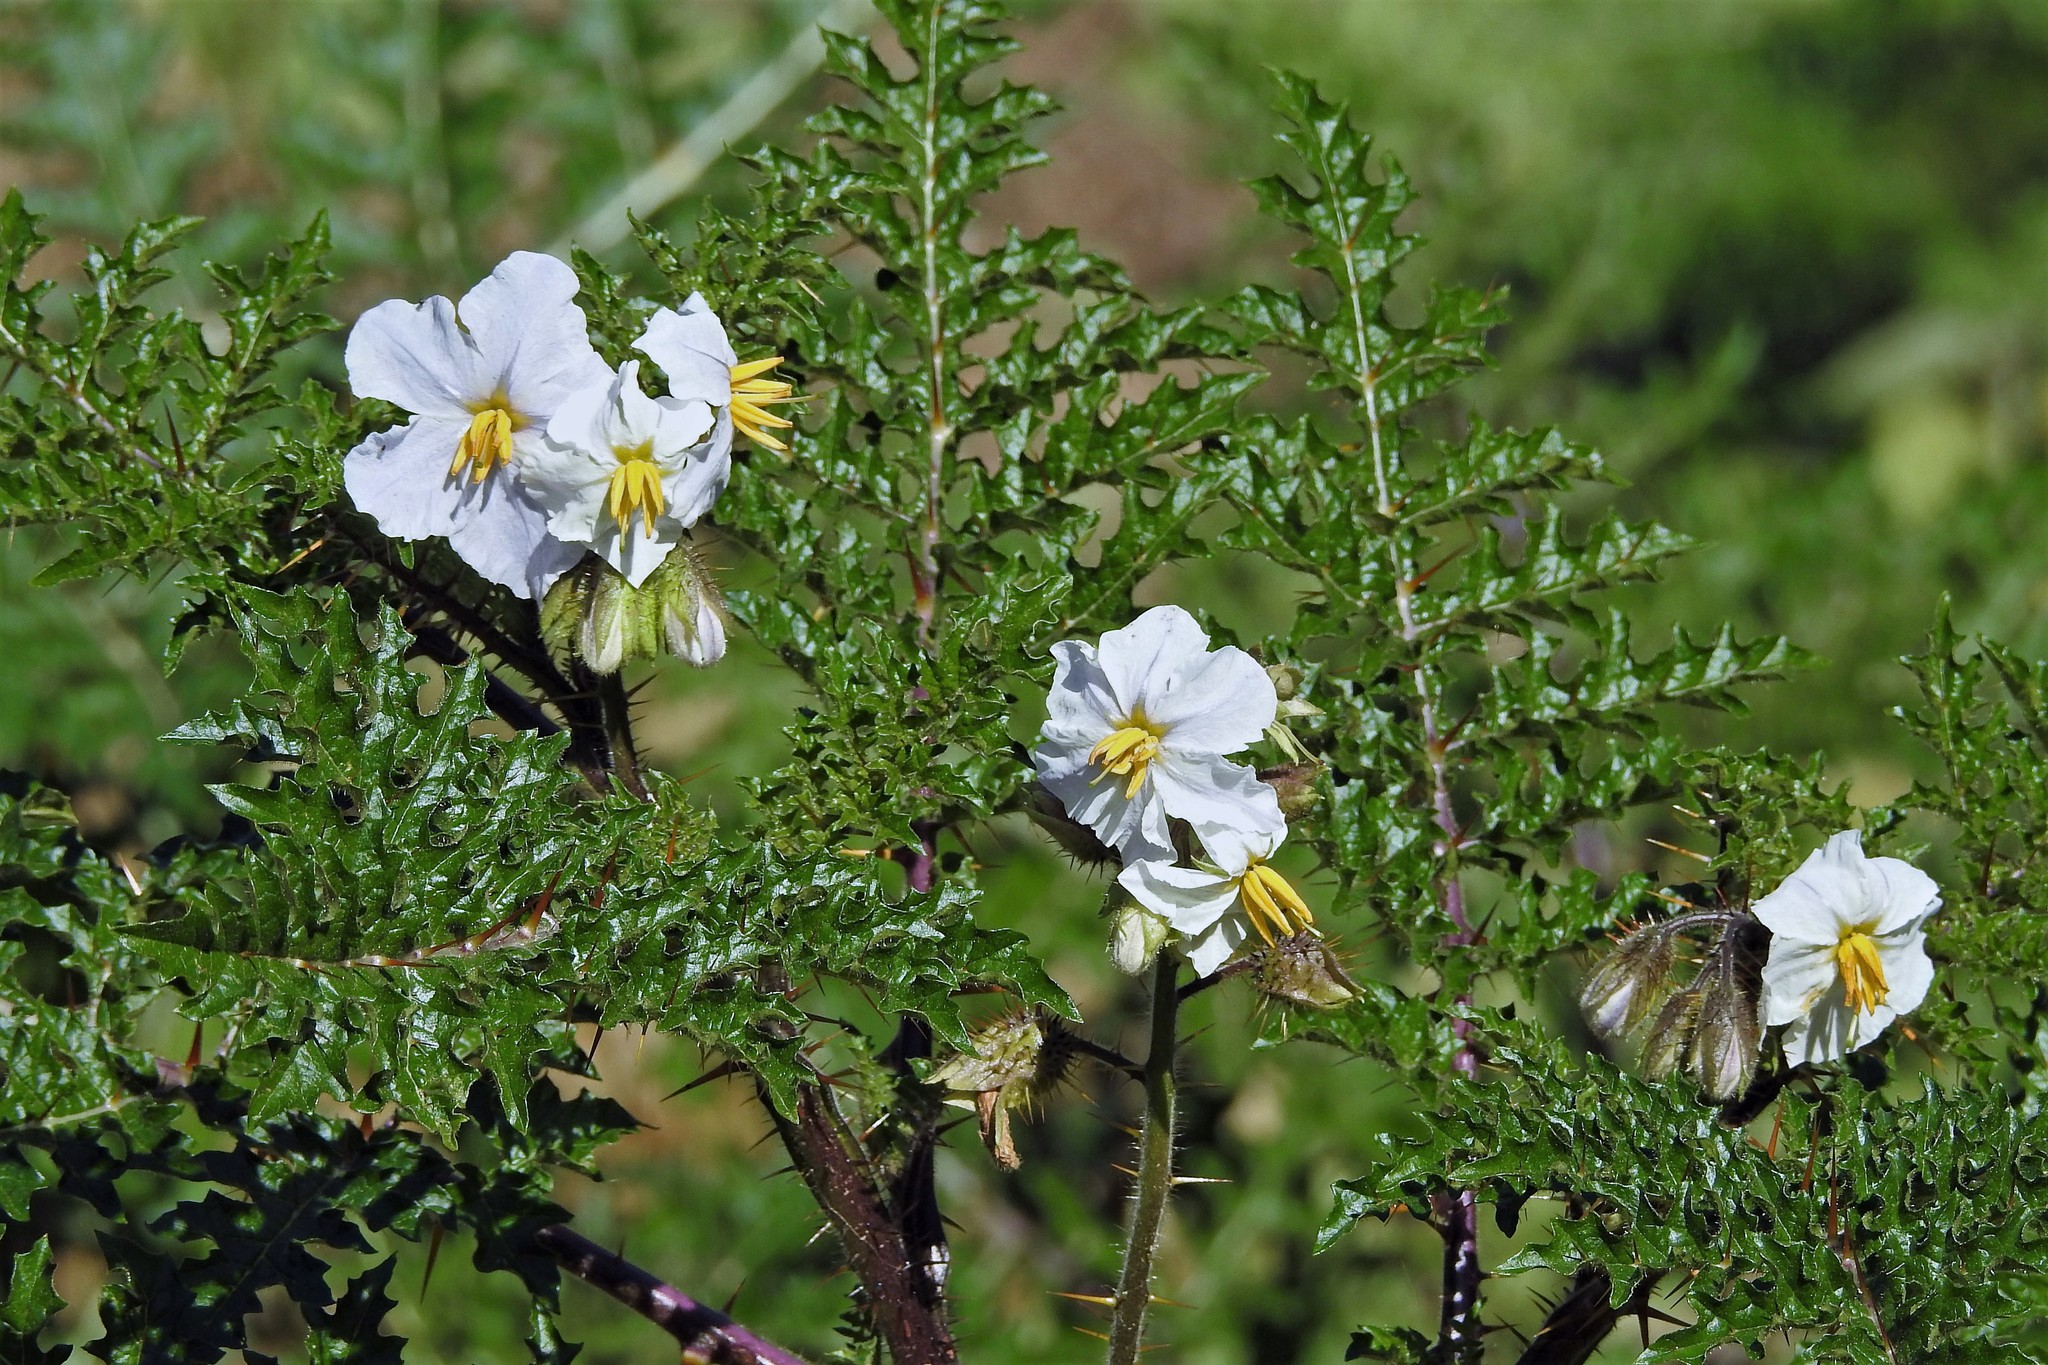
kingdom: Plantae
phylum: Tracheophyta
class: Magnoliopsida
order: Solanales
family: Solanaceae
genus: Solanum
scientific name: Solanum sisymbriifolium
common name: Red buffalo-bur
